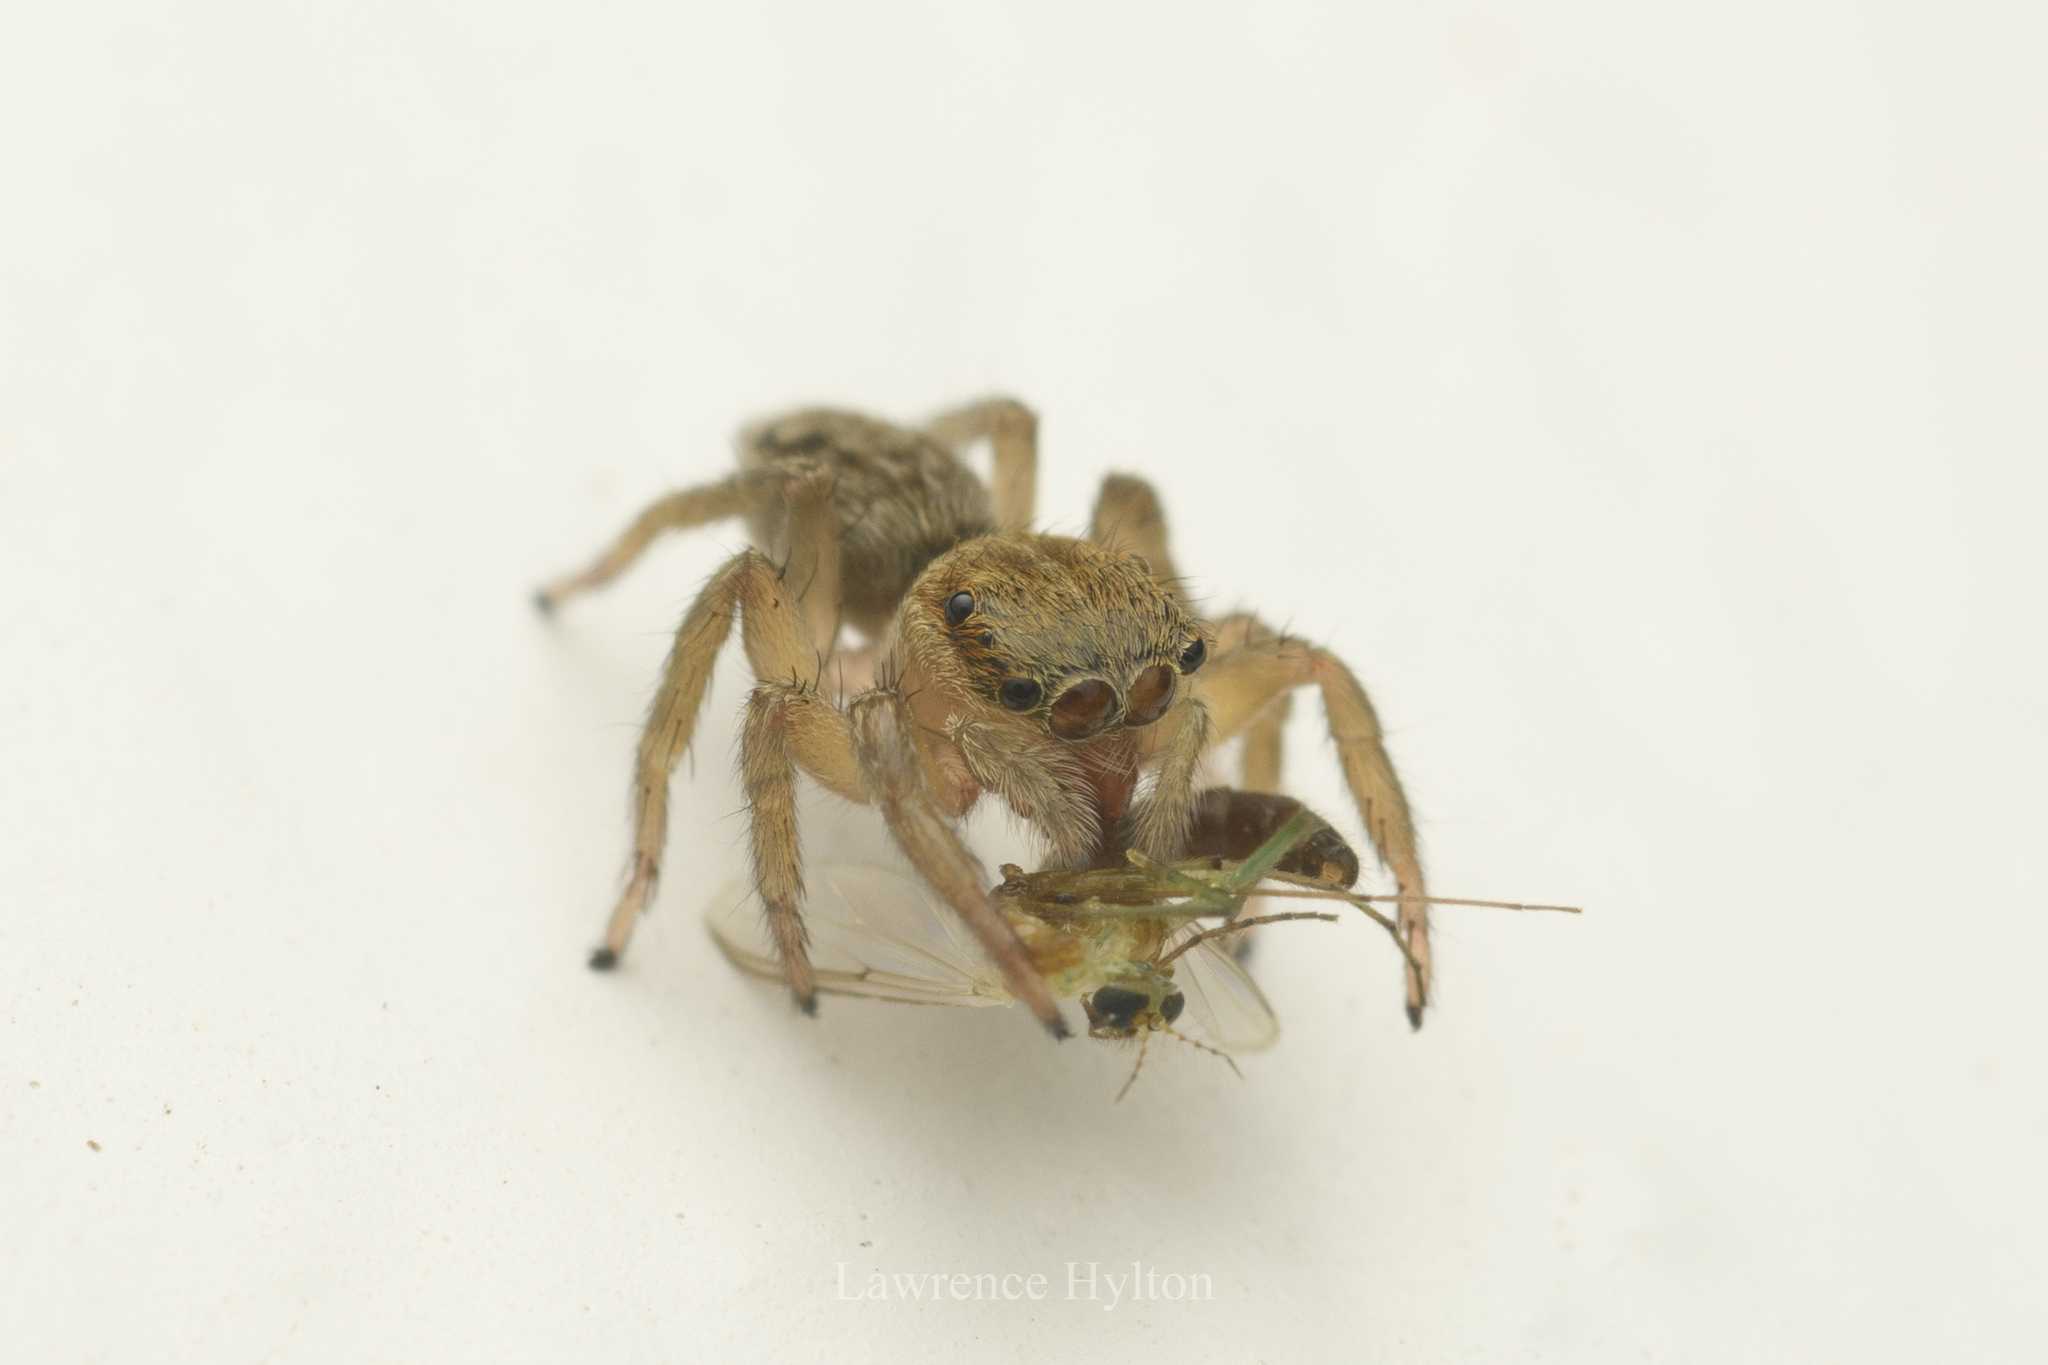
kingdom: Animalia
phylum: Arthropoda
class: Arachnida
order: Araneae
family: Salticidae
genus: Hasarius
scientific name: Hasarius adansoni
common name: Jumping spider
